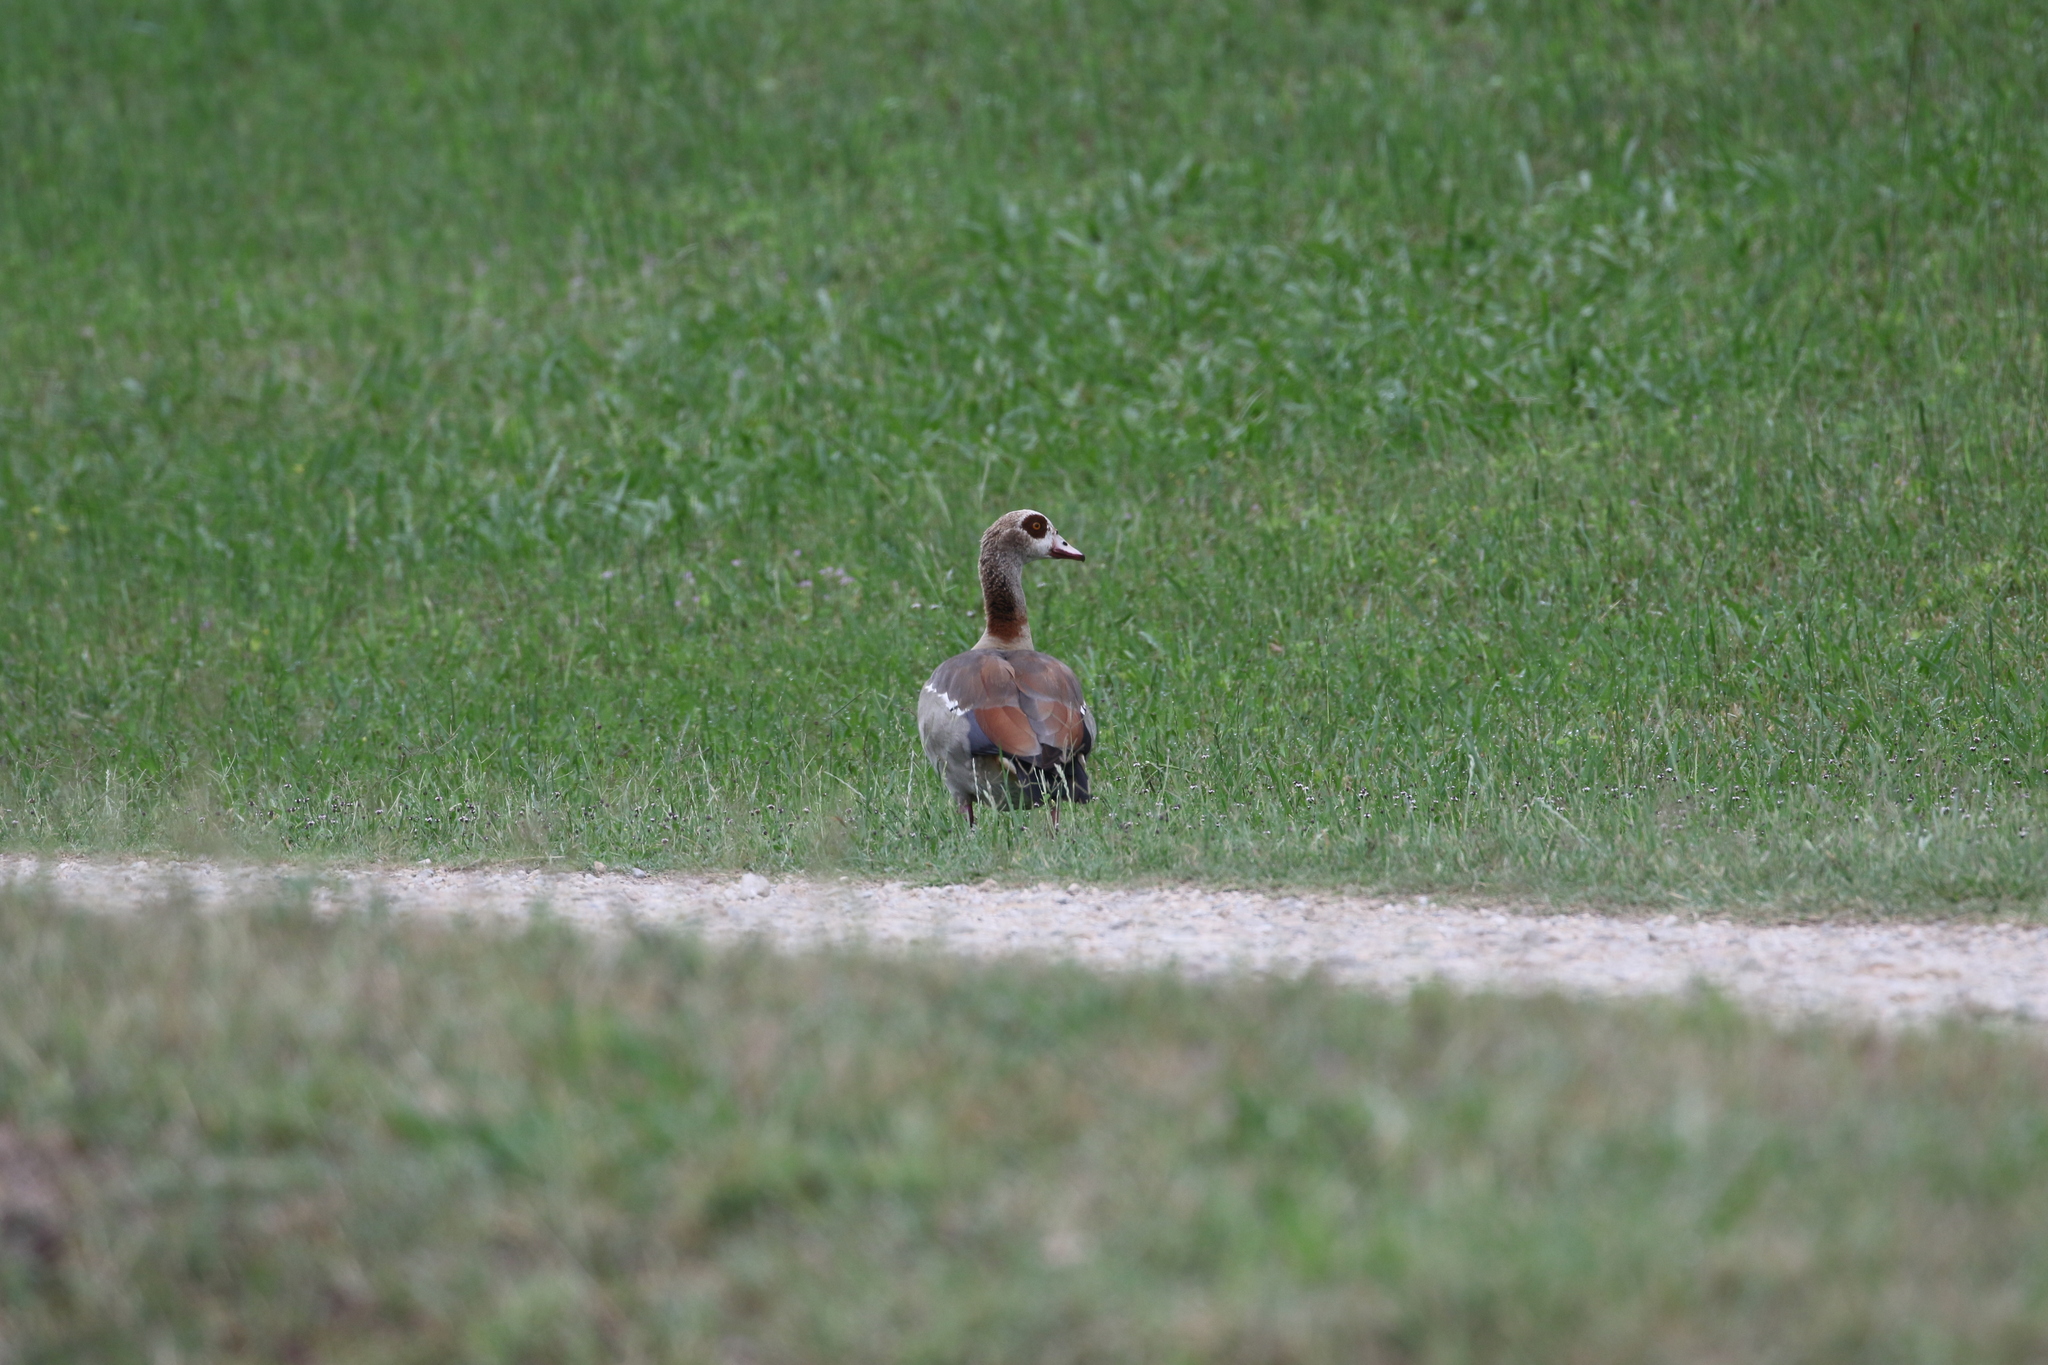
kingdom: Animalia
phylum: Chordata
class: Aves
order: Anseriformes
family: Anatidae
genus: Alopochen
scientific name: Alopochen aegyptiaca
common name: Egyptian goose
